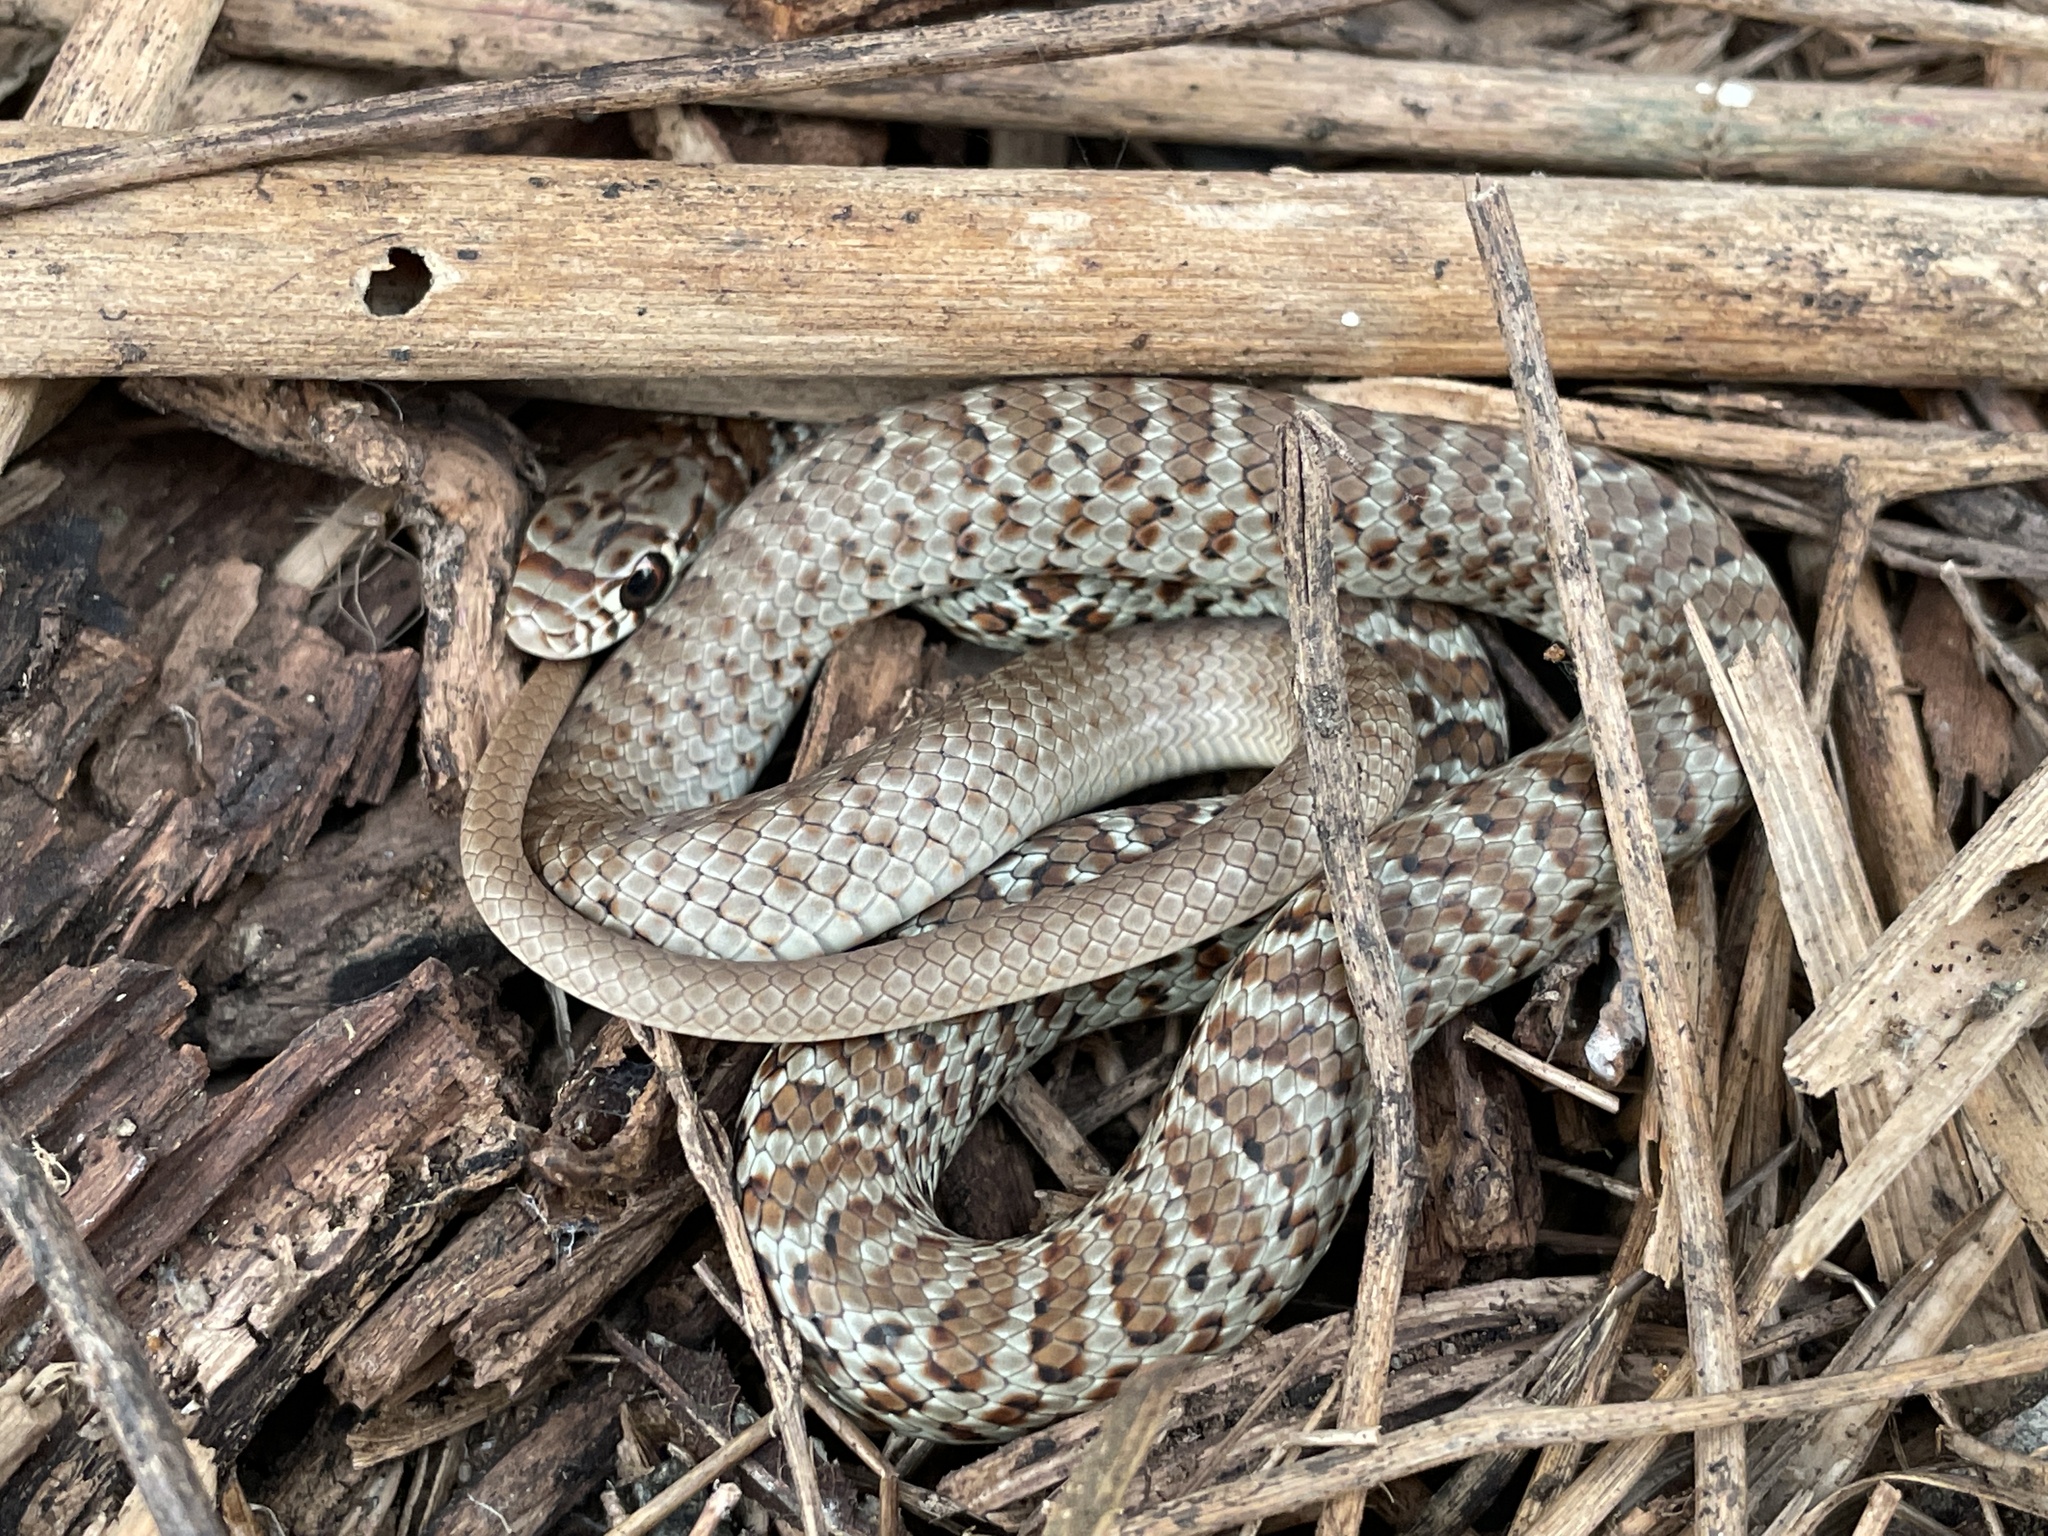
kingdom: Animalia
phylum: Chordata
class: Squamata
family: Colubridae
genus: Coluber
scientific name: Coluber constrictor
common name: Eastern racer
